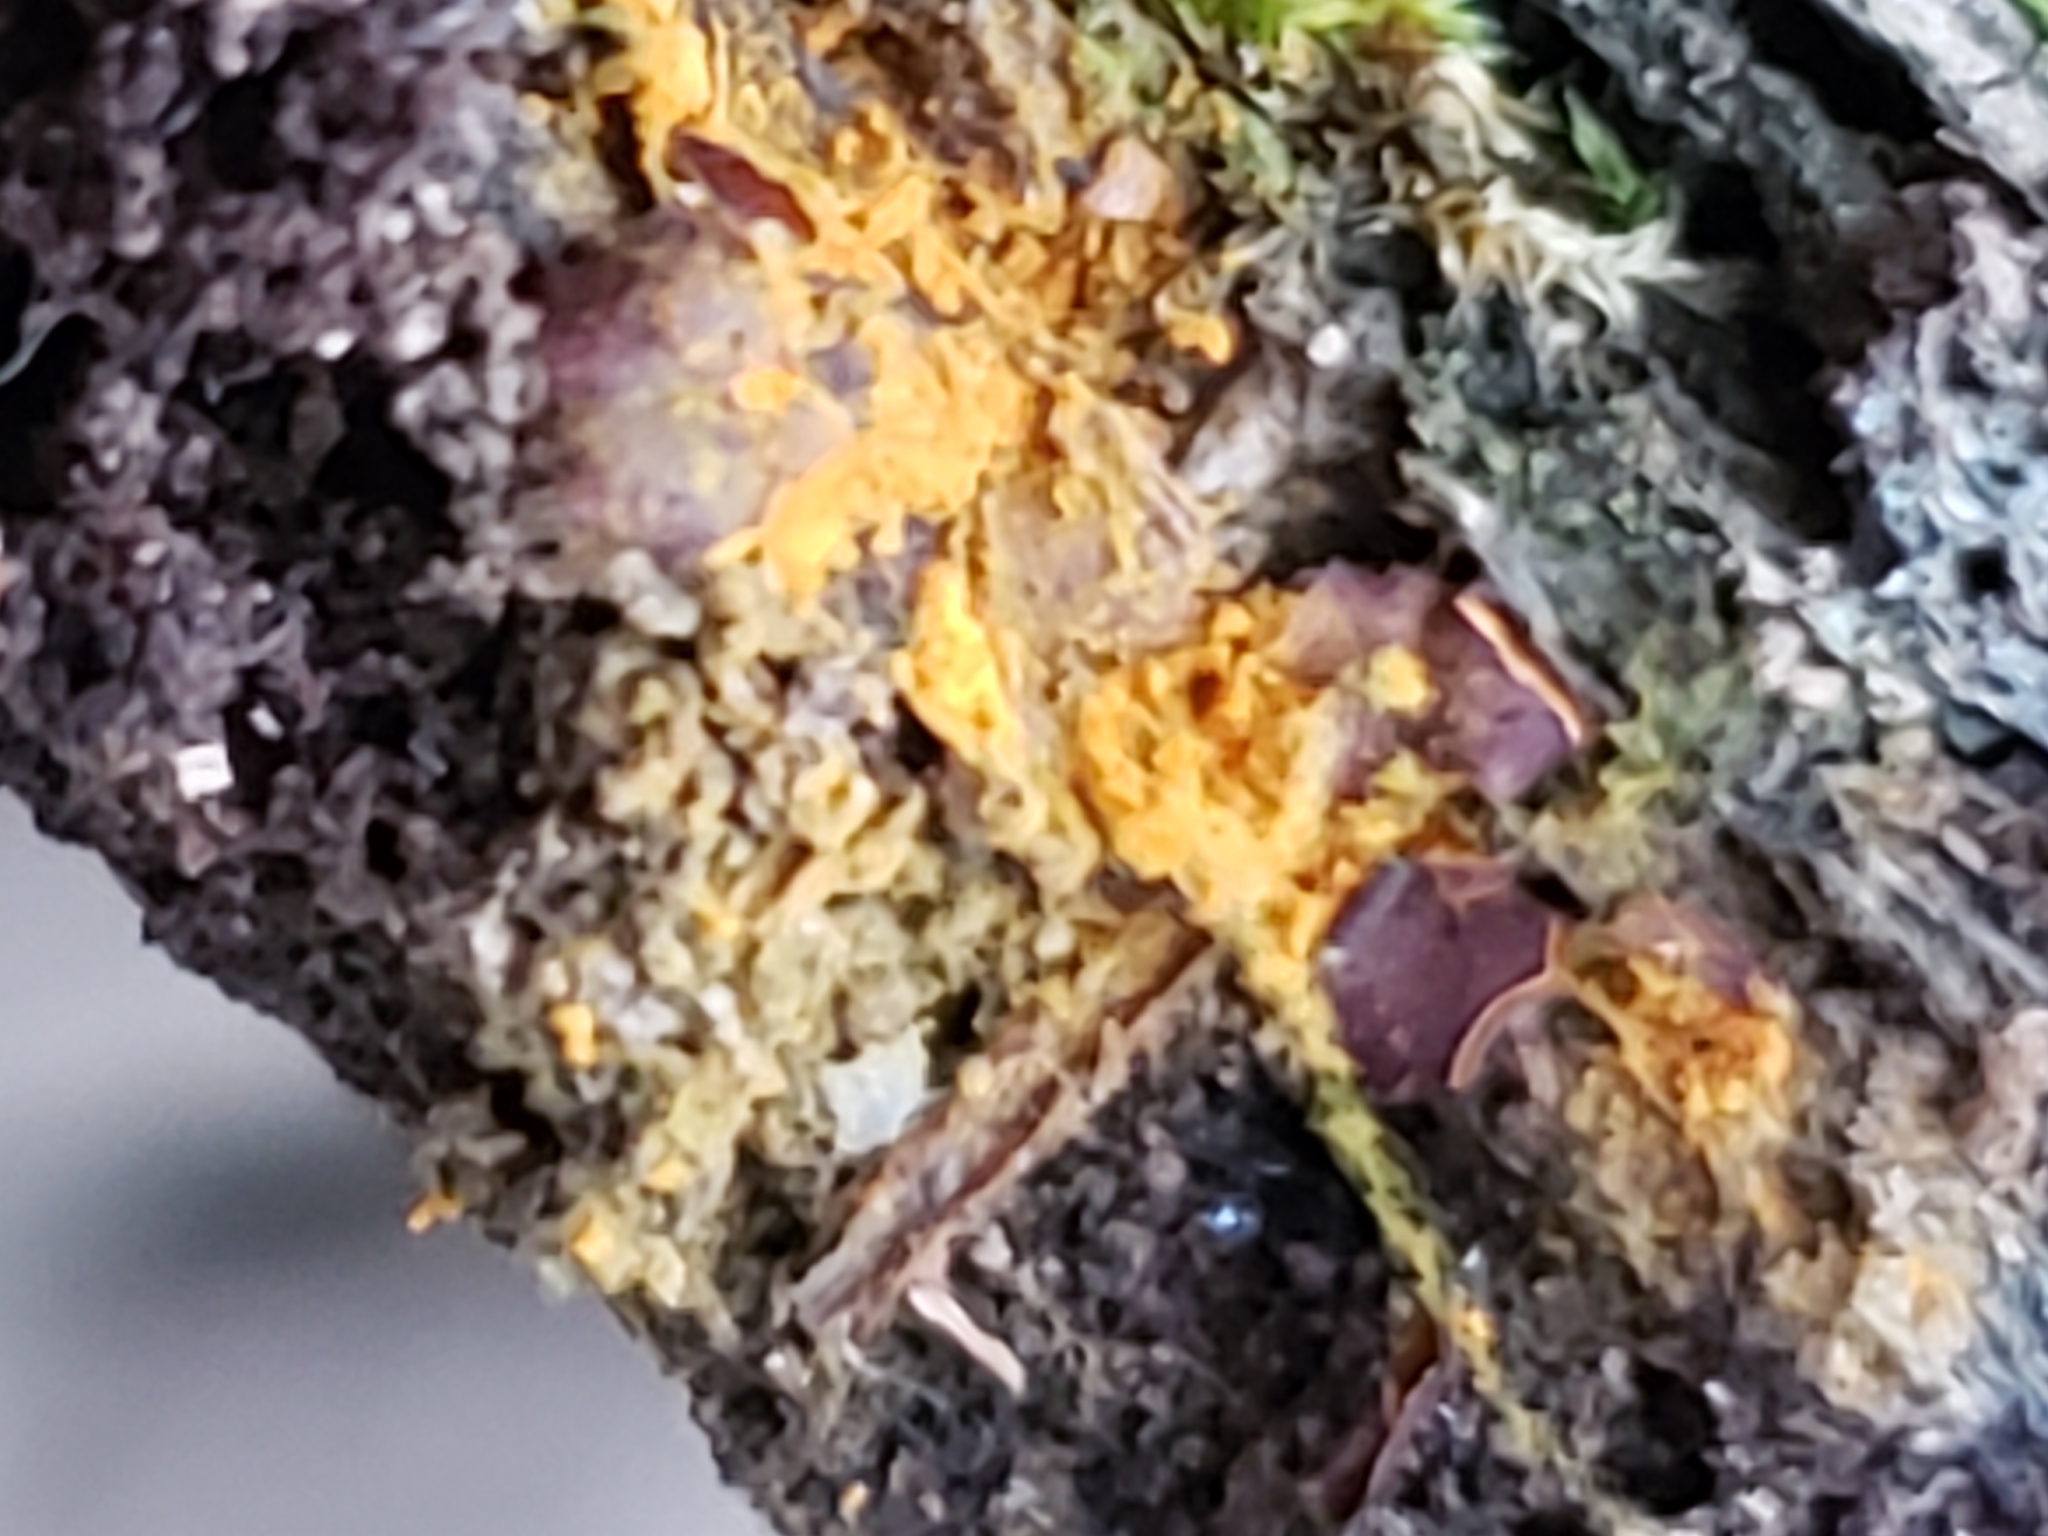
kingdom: Protozoa
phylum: Mycetozoa
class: Myxomycetes
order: Trichiales
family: Trichiaceae
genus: Perichaena
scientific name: Perichaena depressa
